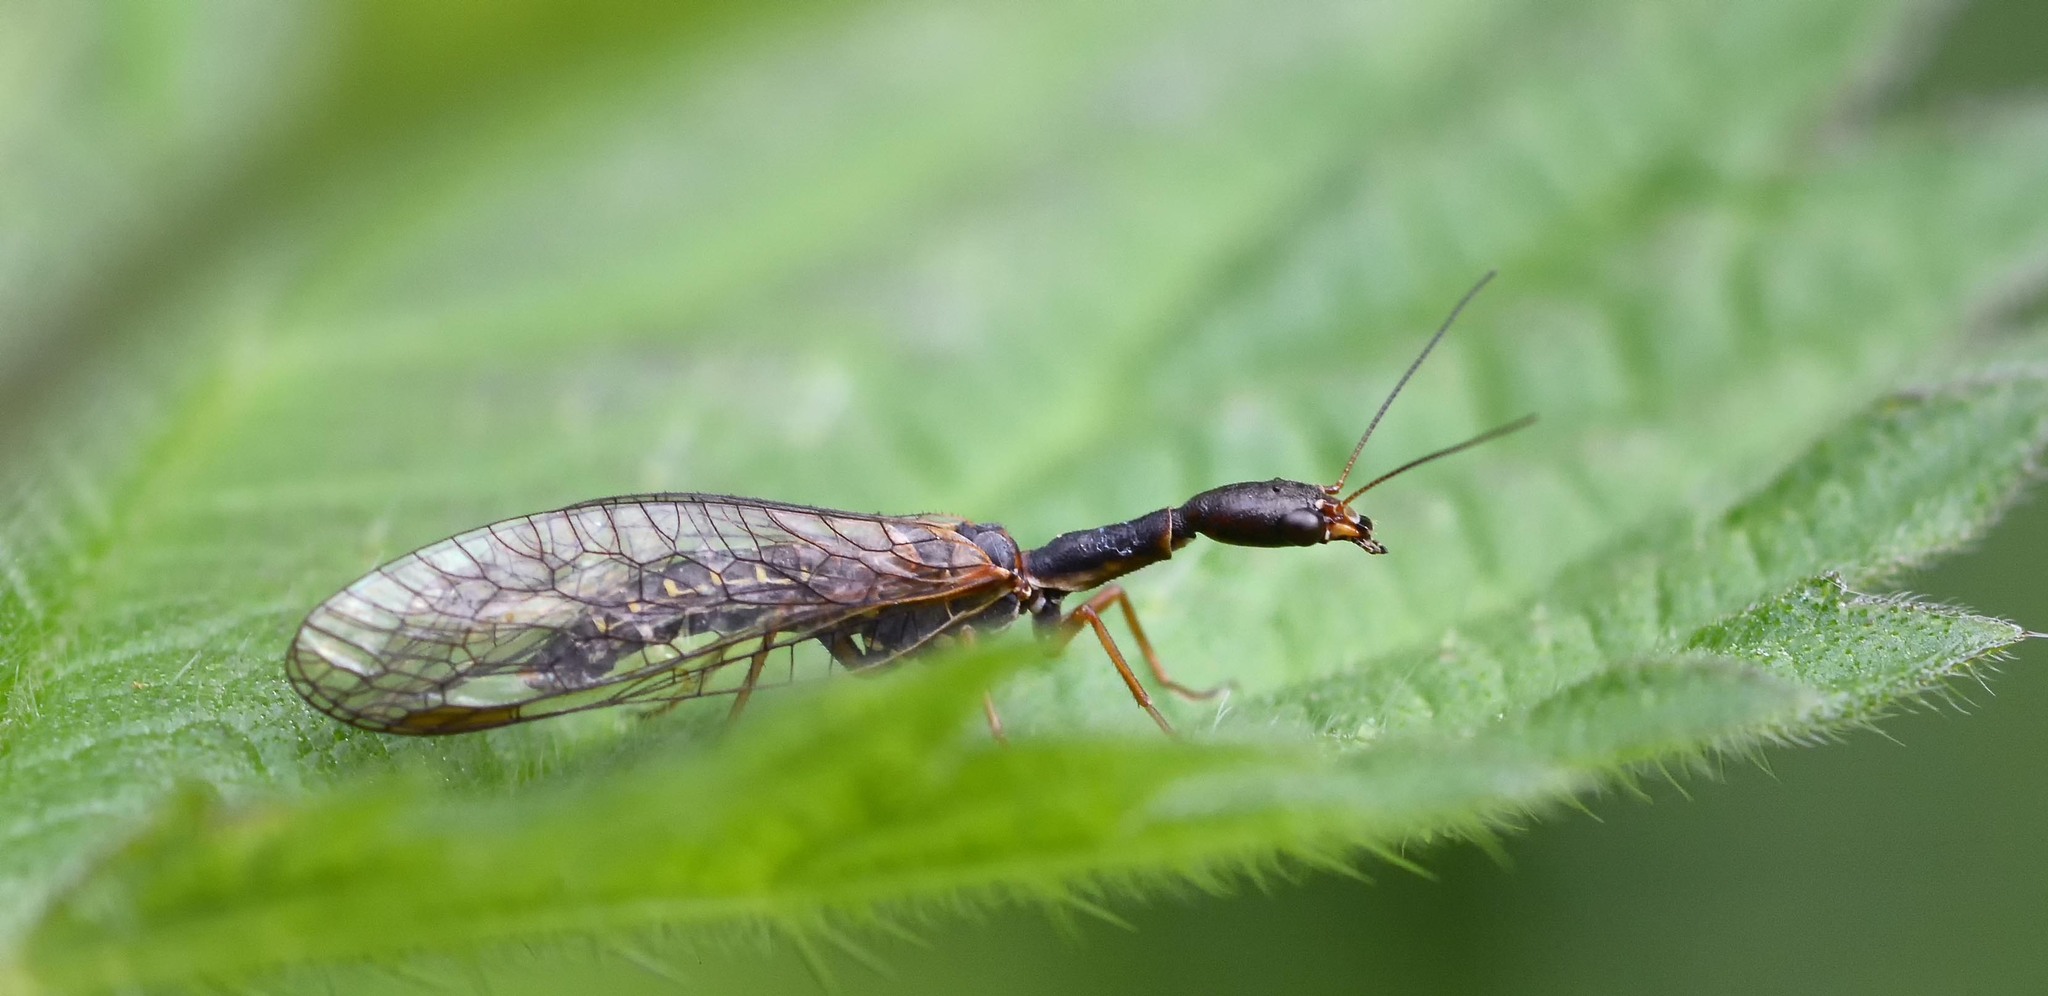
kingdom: Animalia
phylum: Arthropoda
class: Insecta
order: Raphidioptera
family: Raphidiidae
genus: Atlantoraphidia
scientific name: Atlantoraphidia maculicollis
